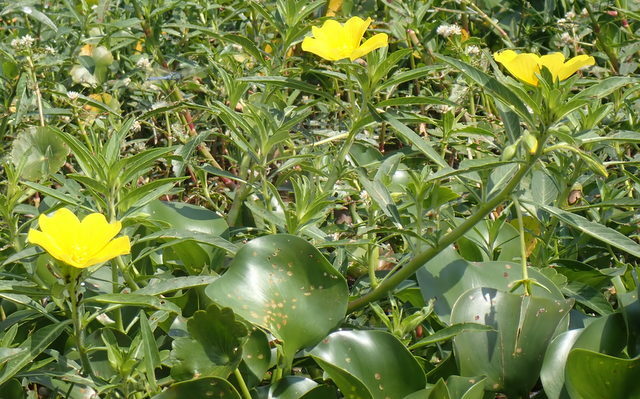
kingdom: Plantae
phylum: Tracheophyta
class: Magnoliopsida
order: Myrtales
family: Onagraceae
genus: Ludwigia
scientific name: Ludwigia hexapetala
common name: Water-primrose
